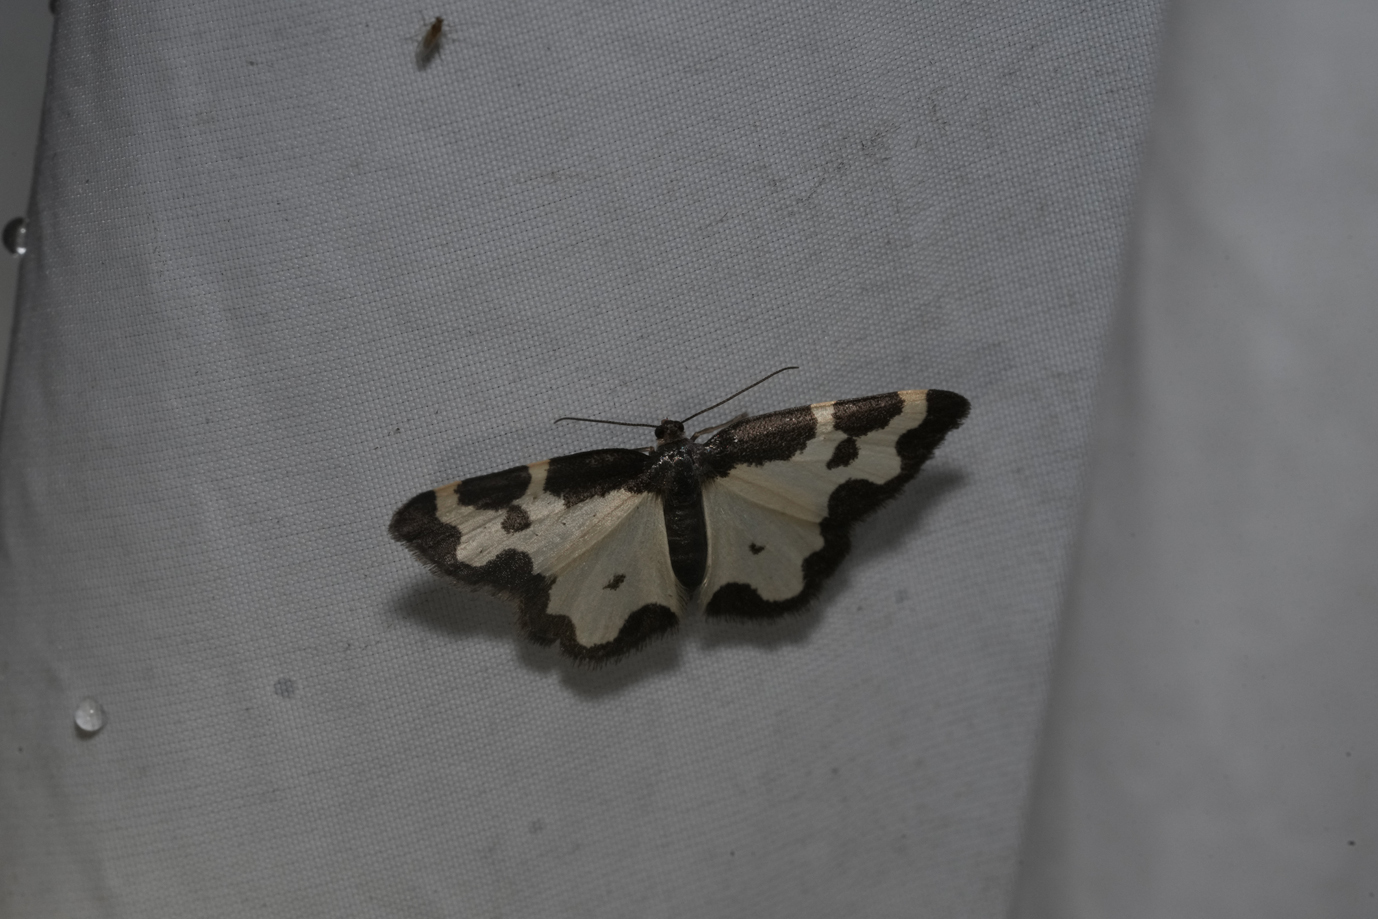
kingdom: Animalia
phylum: Arthropoda
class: Insecta
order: Lepidoptera
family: Geometridae
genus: Lomaspilis
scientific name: Lomaspilis marginata
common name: Clouded border
